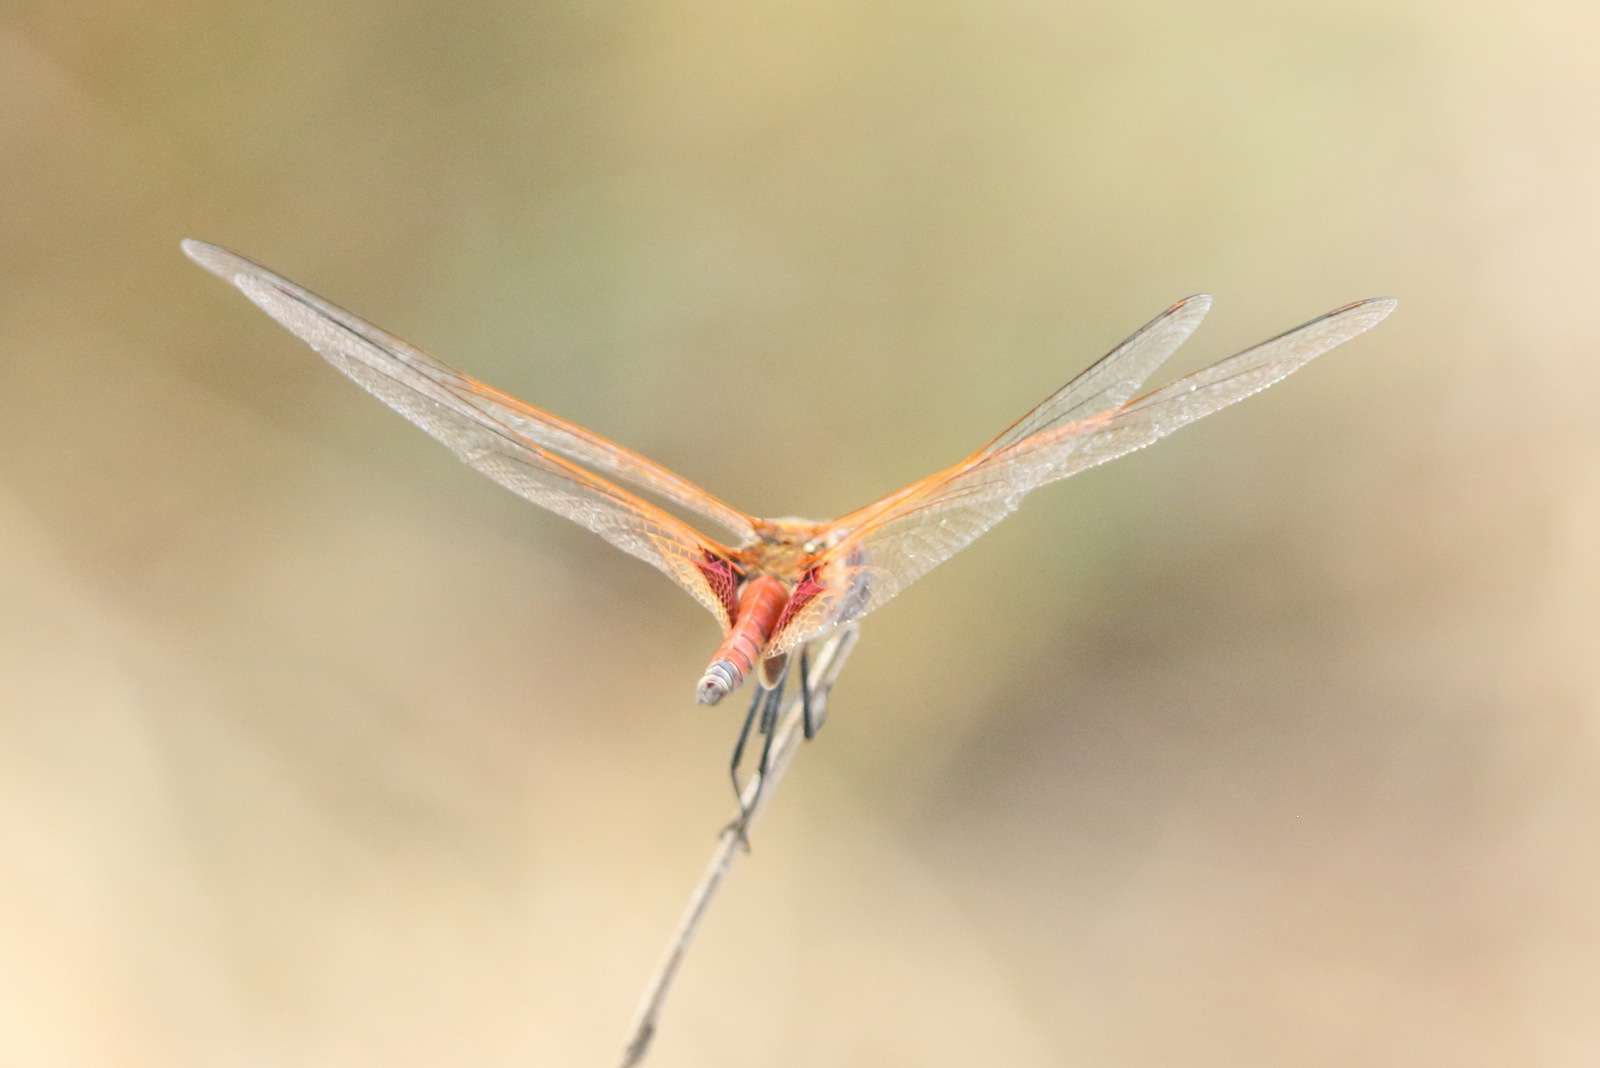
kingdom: Animalia
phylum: Arthropoda
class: Insecta
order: Odonata
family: Libellulidae
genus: Tramea
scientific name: Tramea loewii
